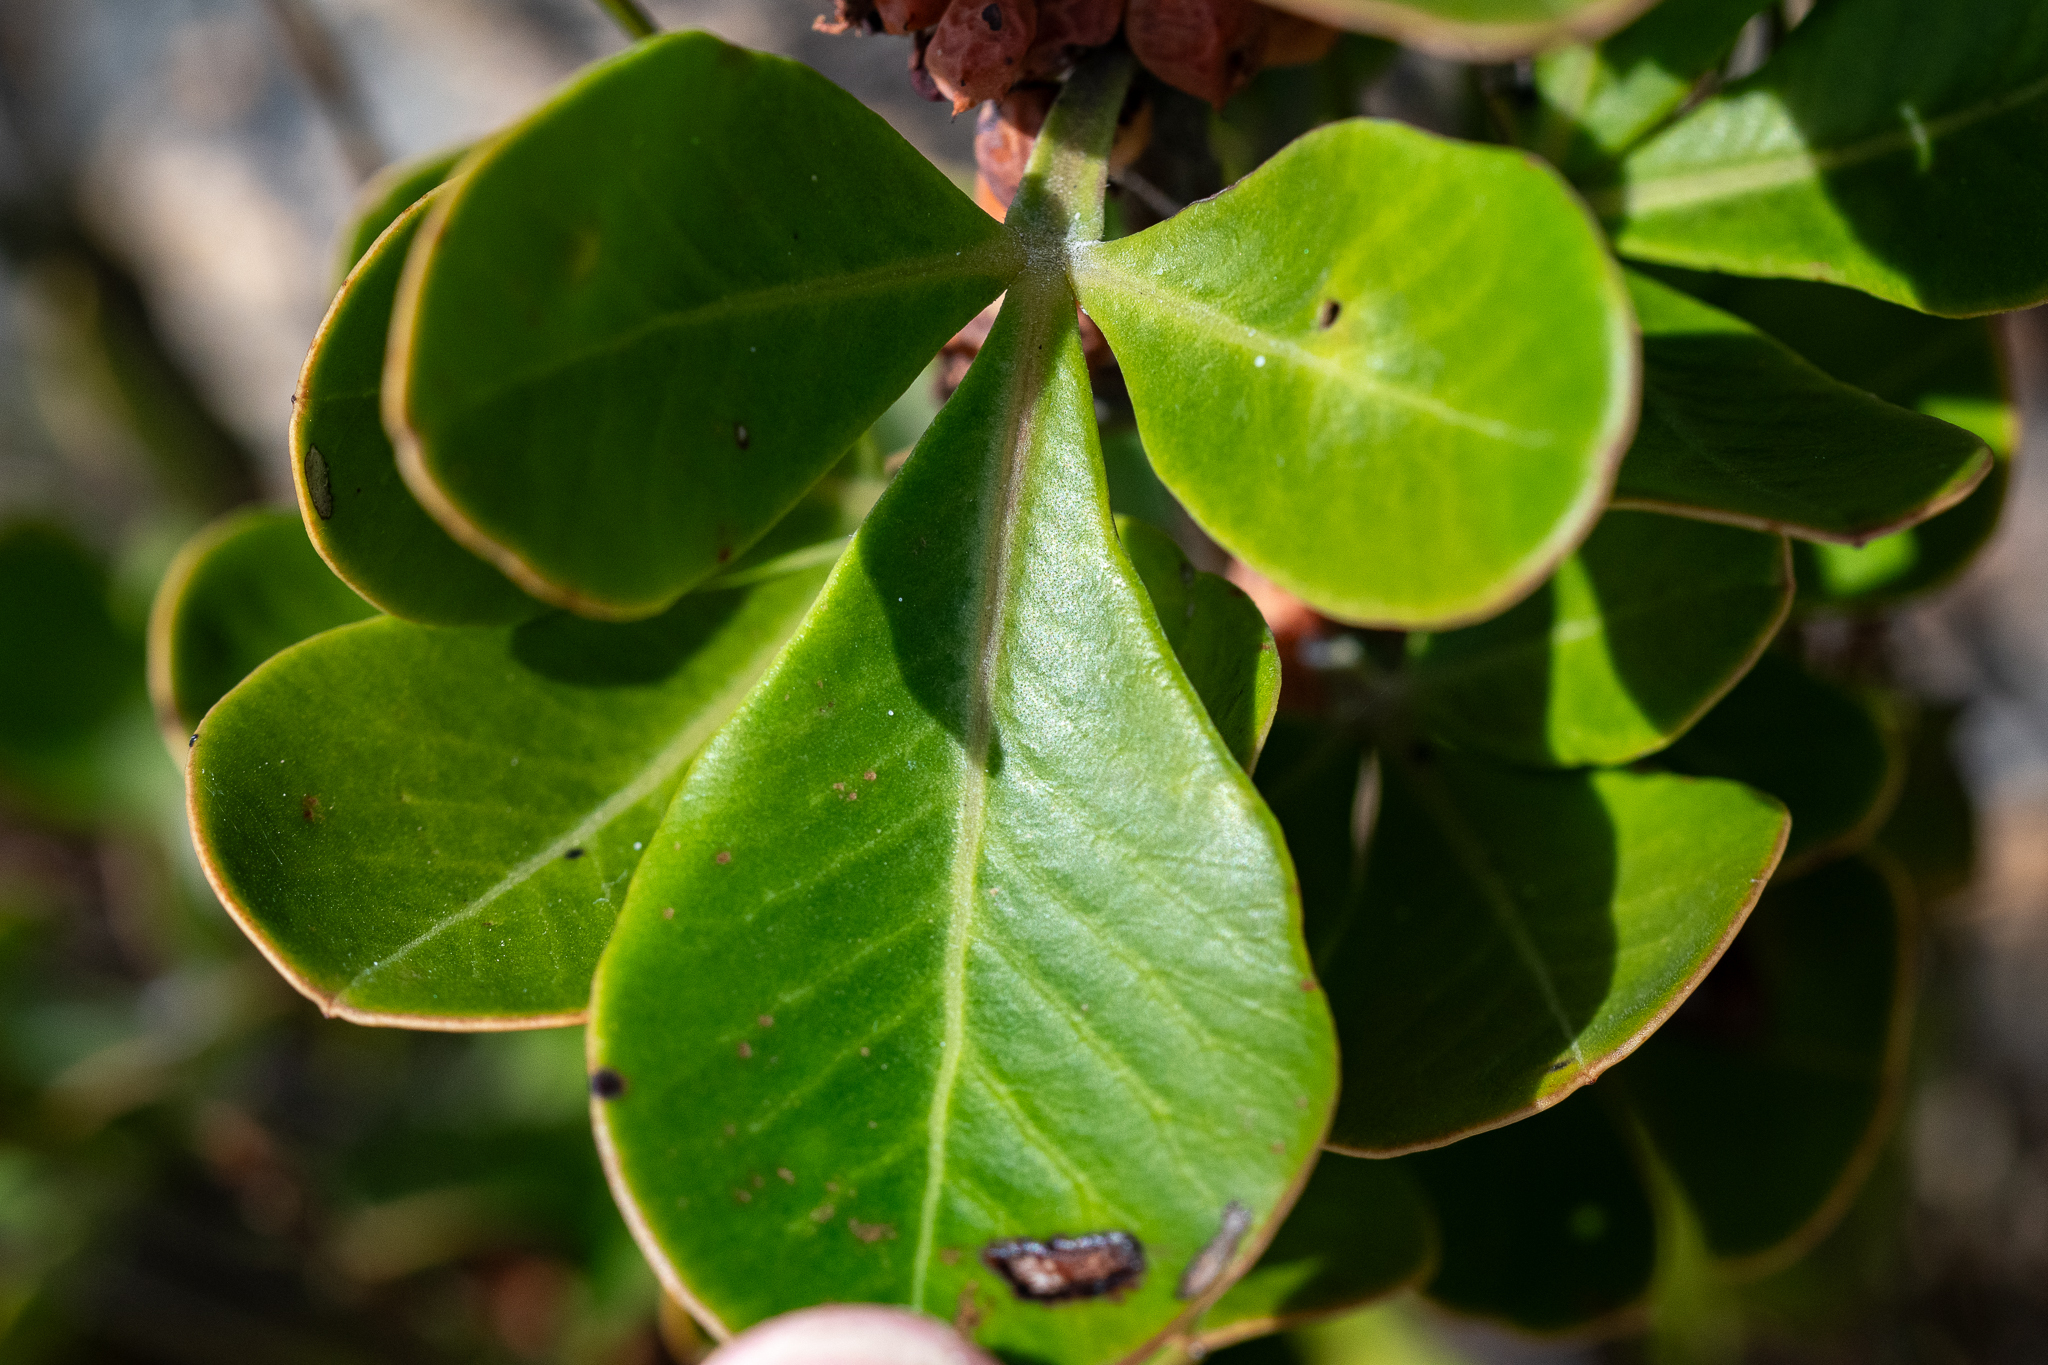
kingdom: Plantae
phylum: Tracheophyta
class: Magnoliopsida
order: Sapindales
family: Anacardiaceae
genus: Searsia
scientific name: Searsia scytophylla
